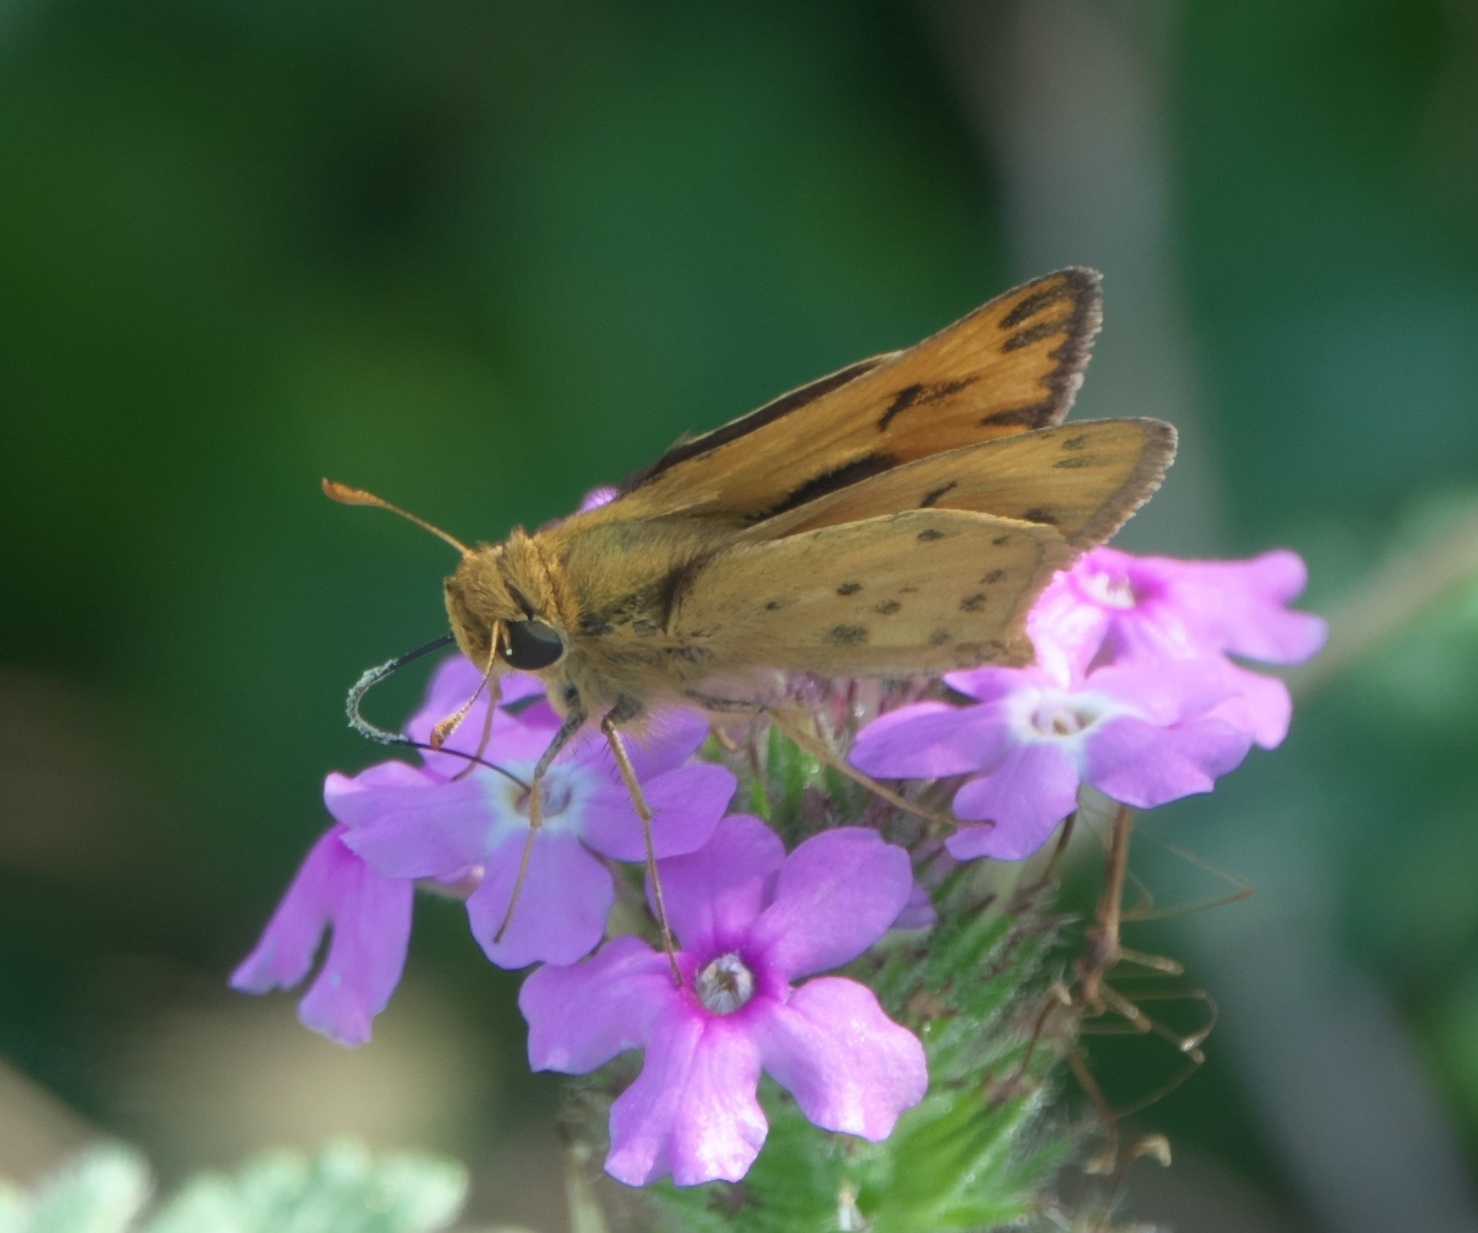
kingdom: Animalia
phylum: Arthropoda
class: Insecta
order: Lepidoptera
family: Hesperiidae
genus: Hylephila
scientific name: Hylephila phyleus
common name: Fiery skipper
